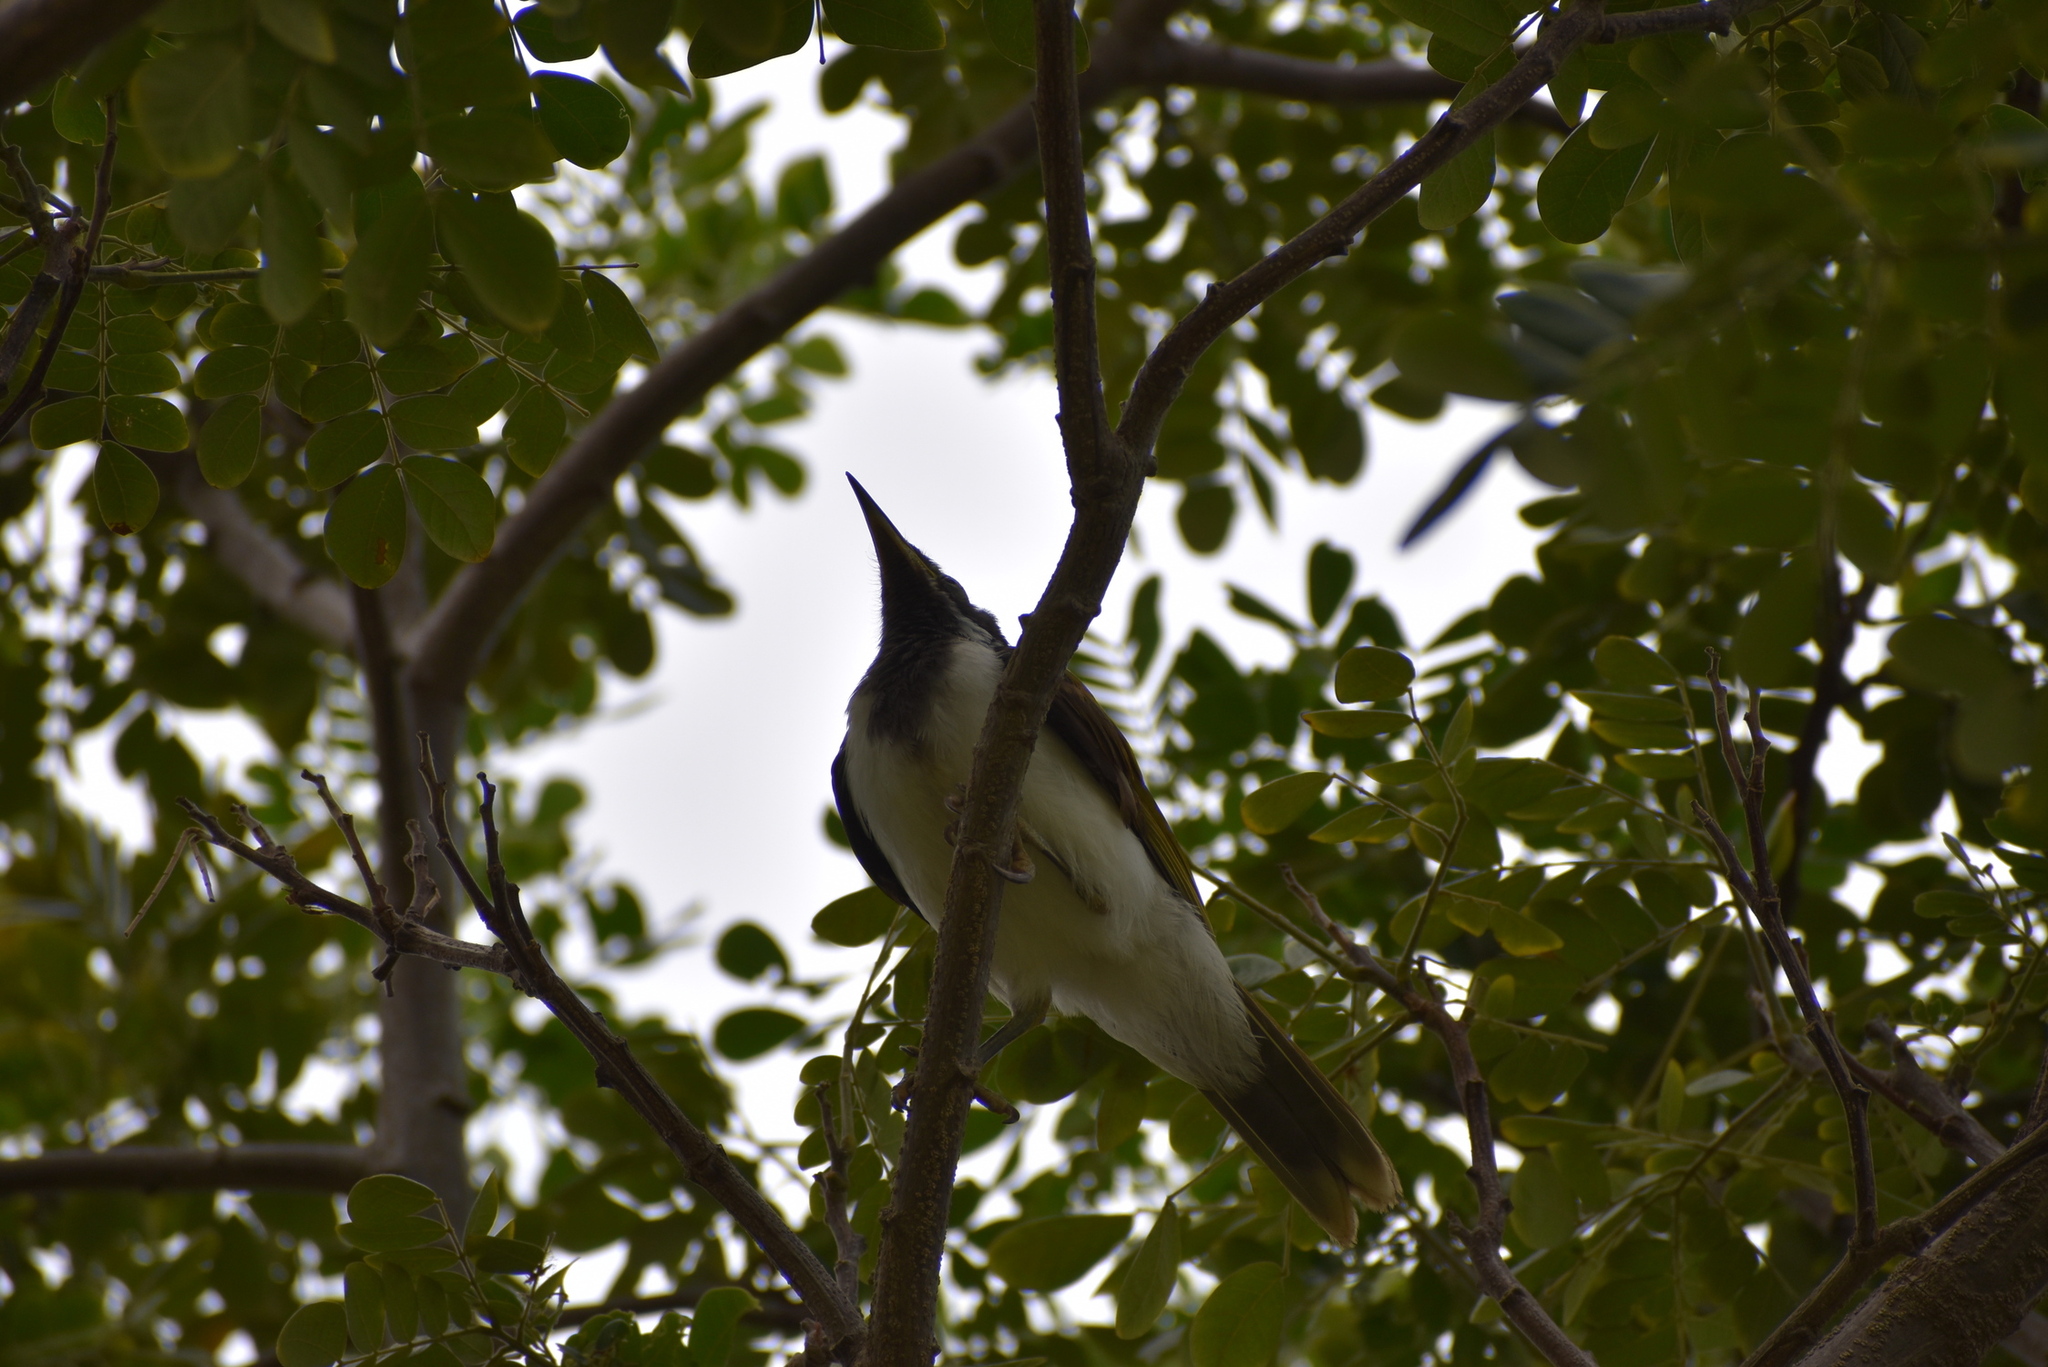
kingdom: Animalia
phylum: Chordata
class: Aves
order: Passeriformes
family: Meliphagidae
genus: Entomyzon
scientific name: Entomyzon cyanotis
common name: Blue-faced honeyeater
